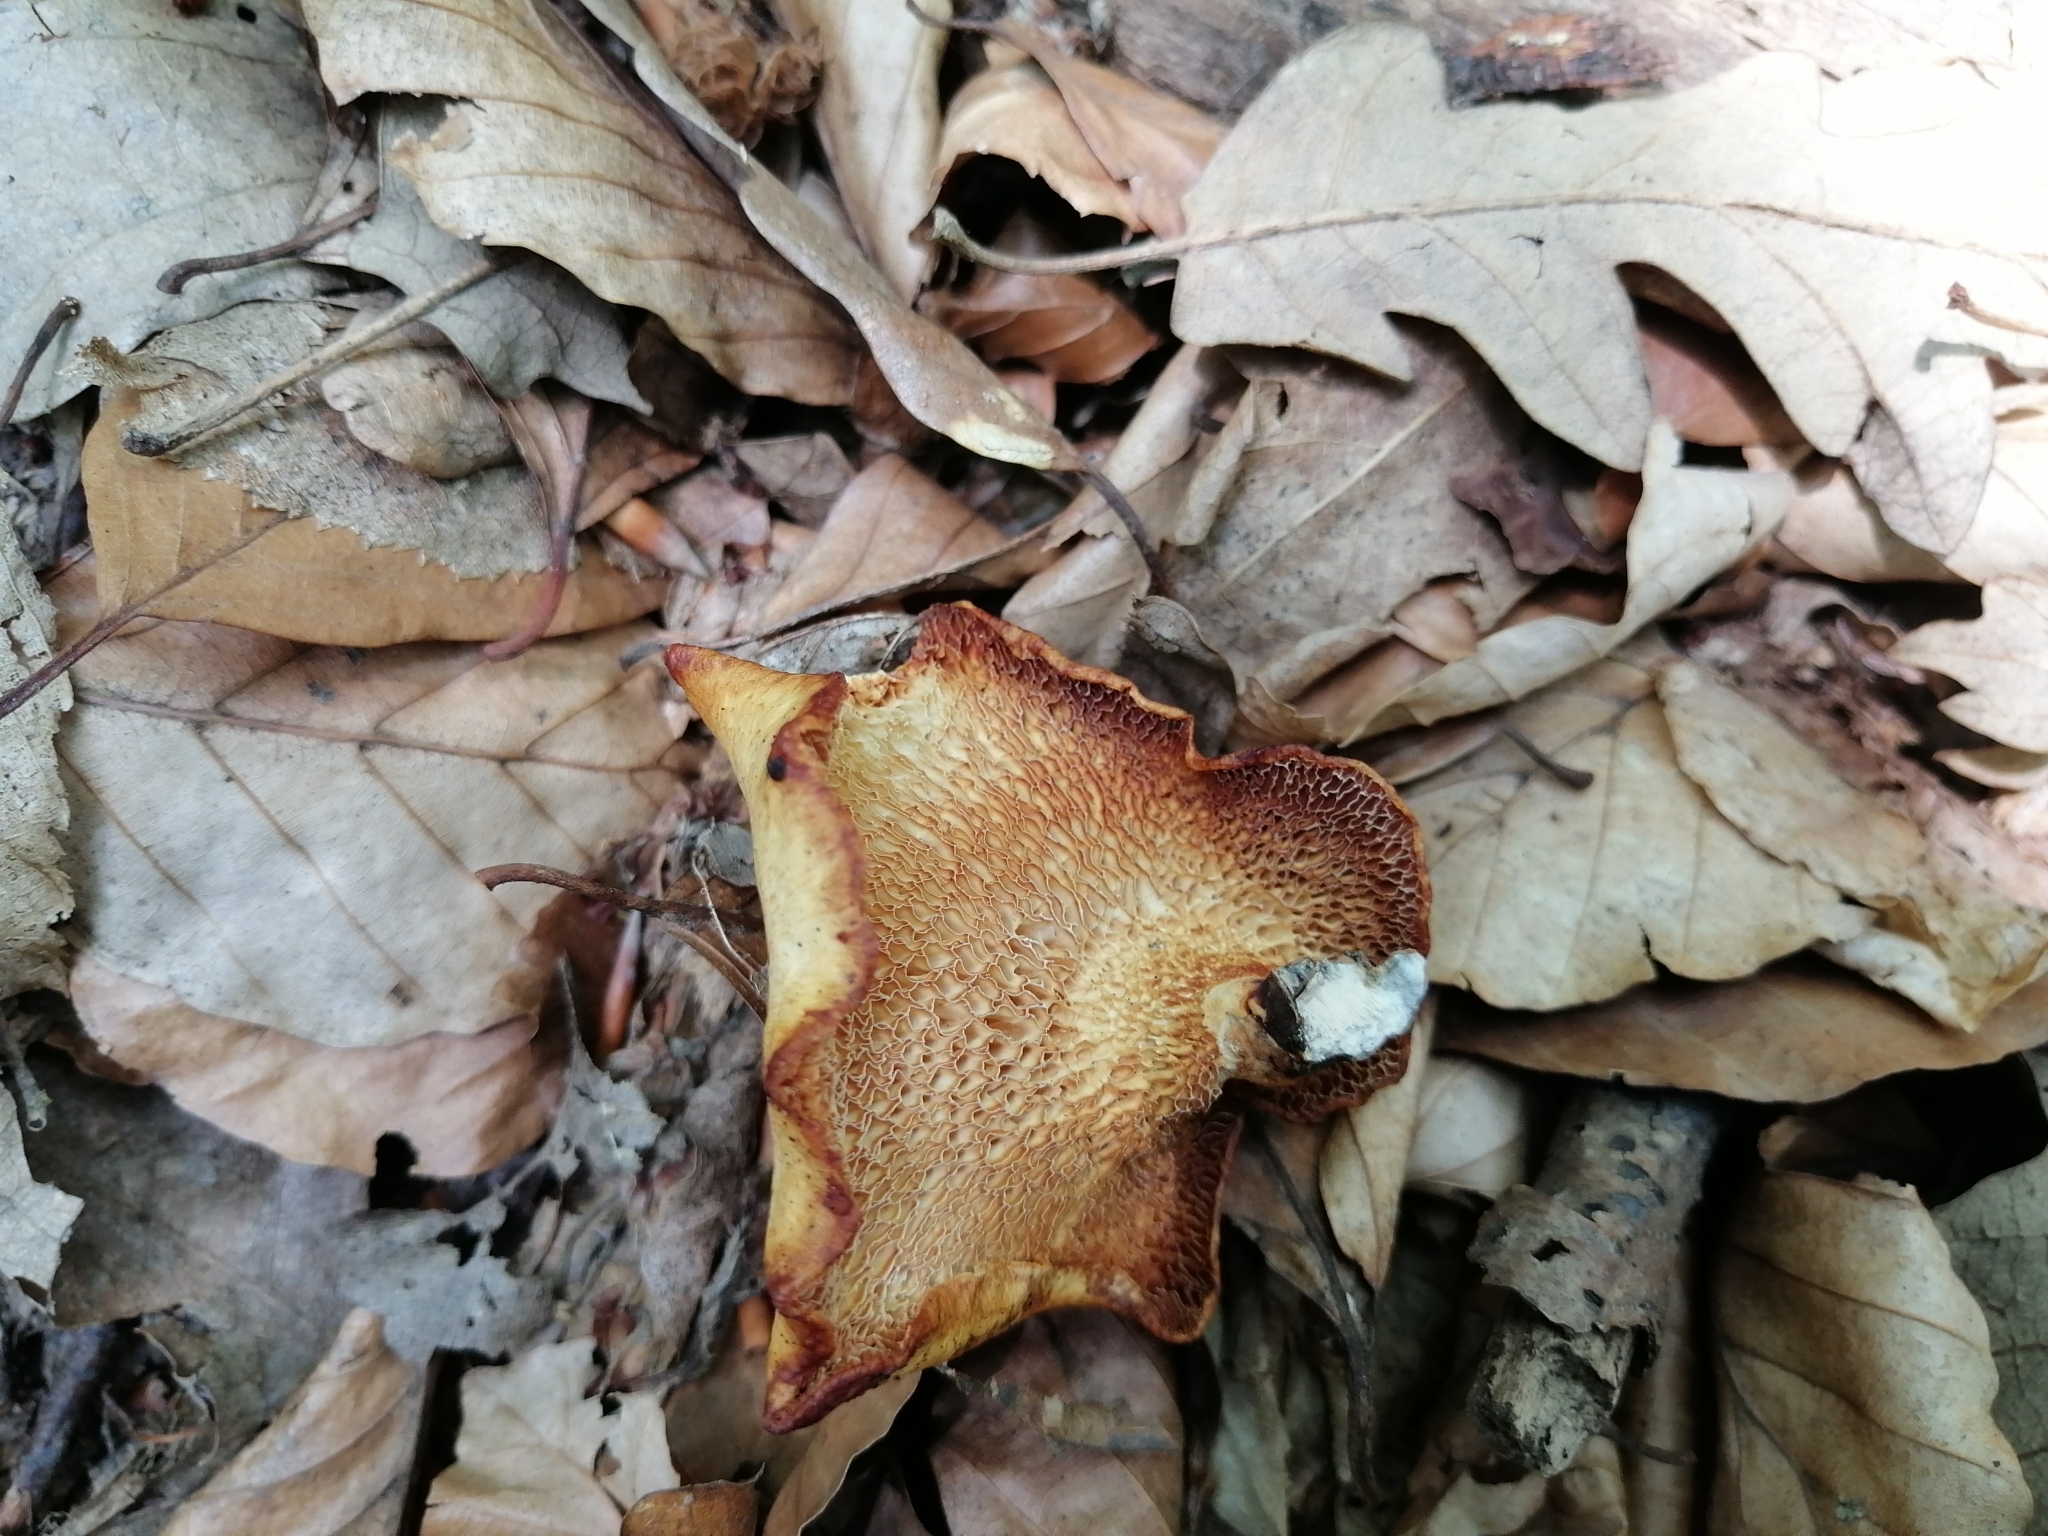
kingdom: Fungi
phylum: Basidiomycota
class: Agaricomycetes
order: Polyporales
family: Polyporaceae
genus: Neofavolus
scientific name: Neofavolus alveolaris
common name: Hexagonal-pored polypore
